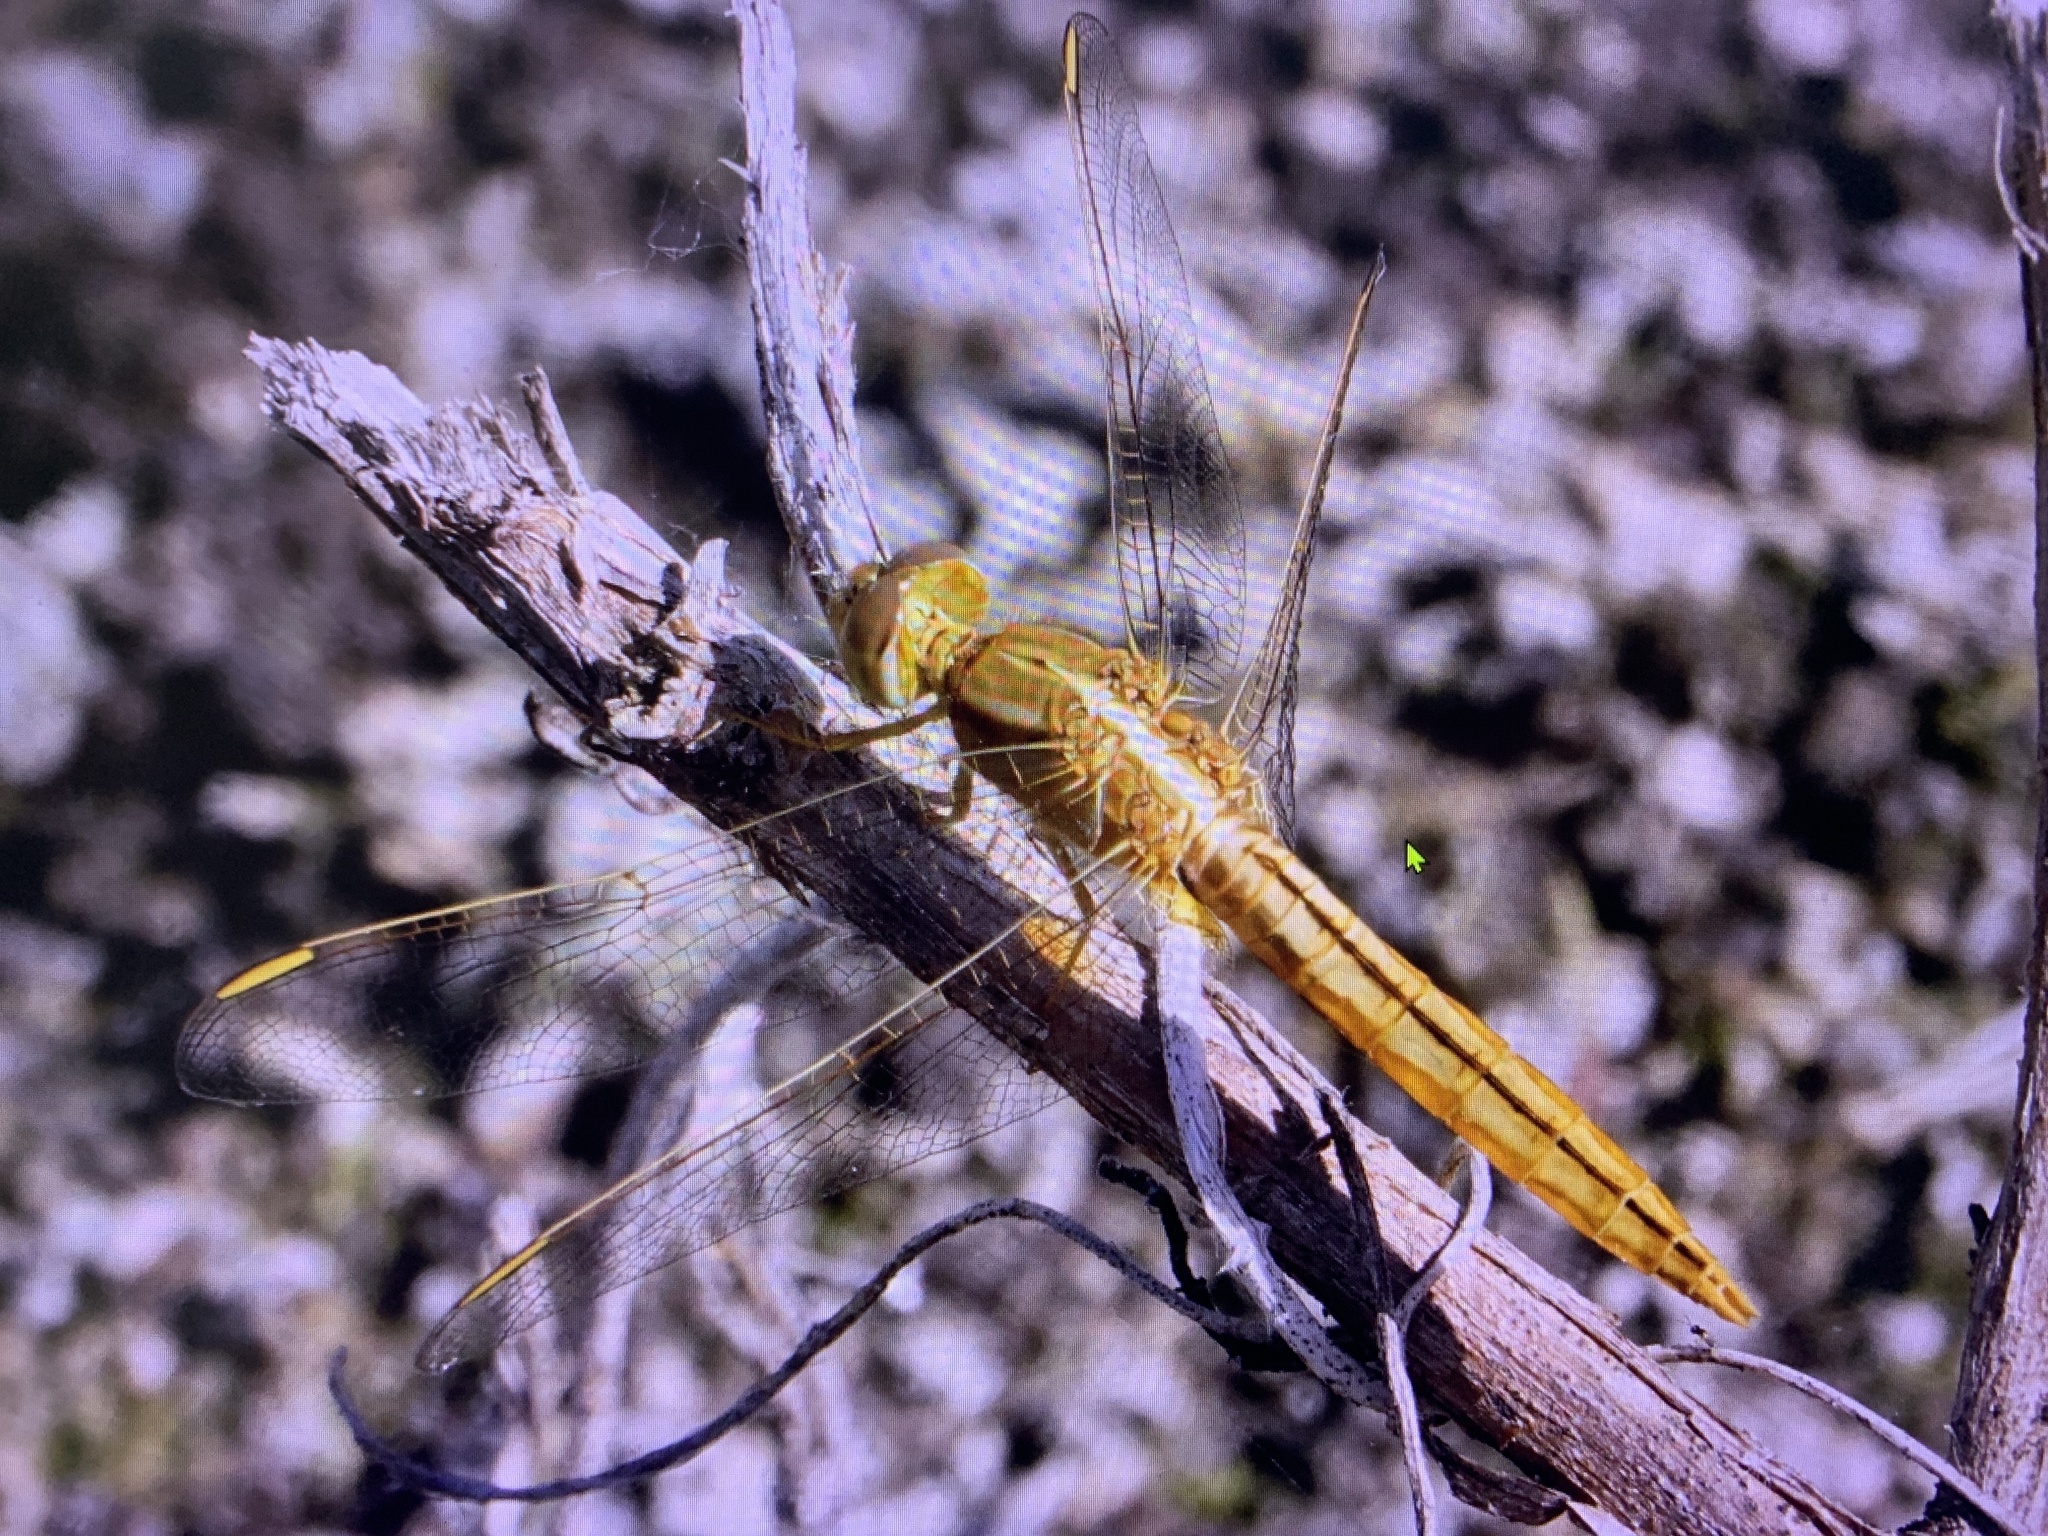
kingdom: Animalia
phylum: Arthropoda
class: Insecta
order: Odonata
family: Libellulidae
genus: Crocothemis
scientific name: Crocothemis servilia
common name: Scarlet skimmer
